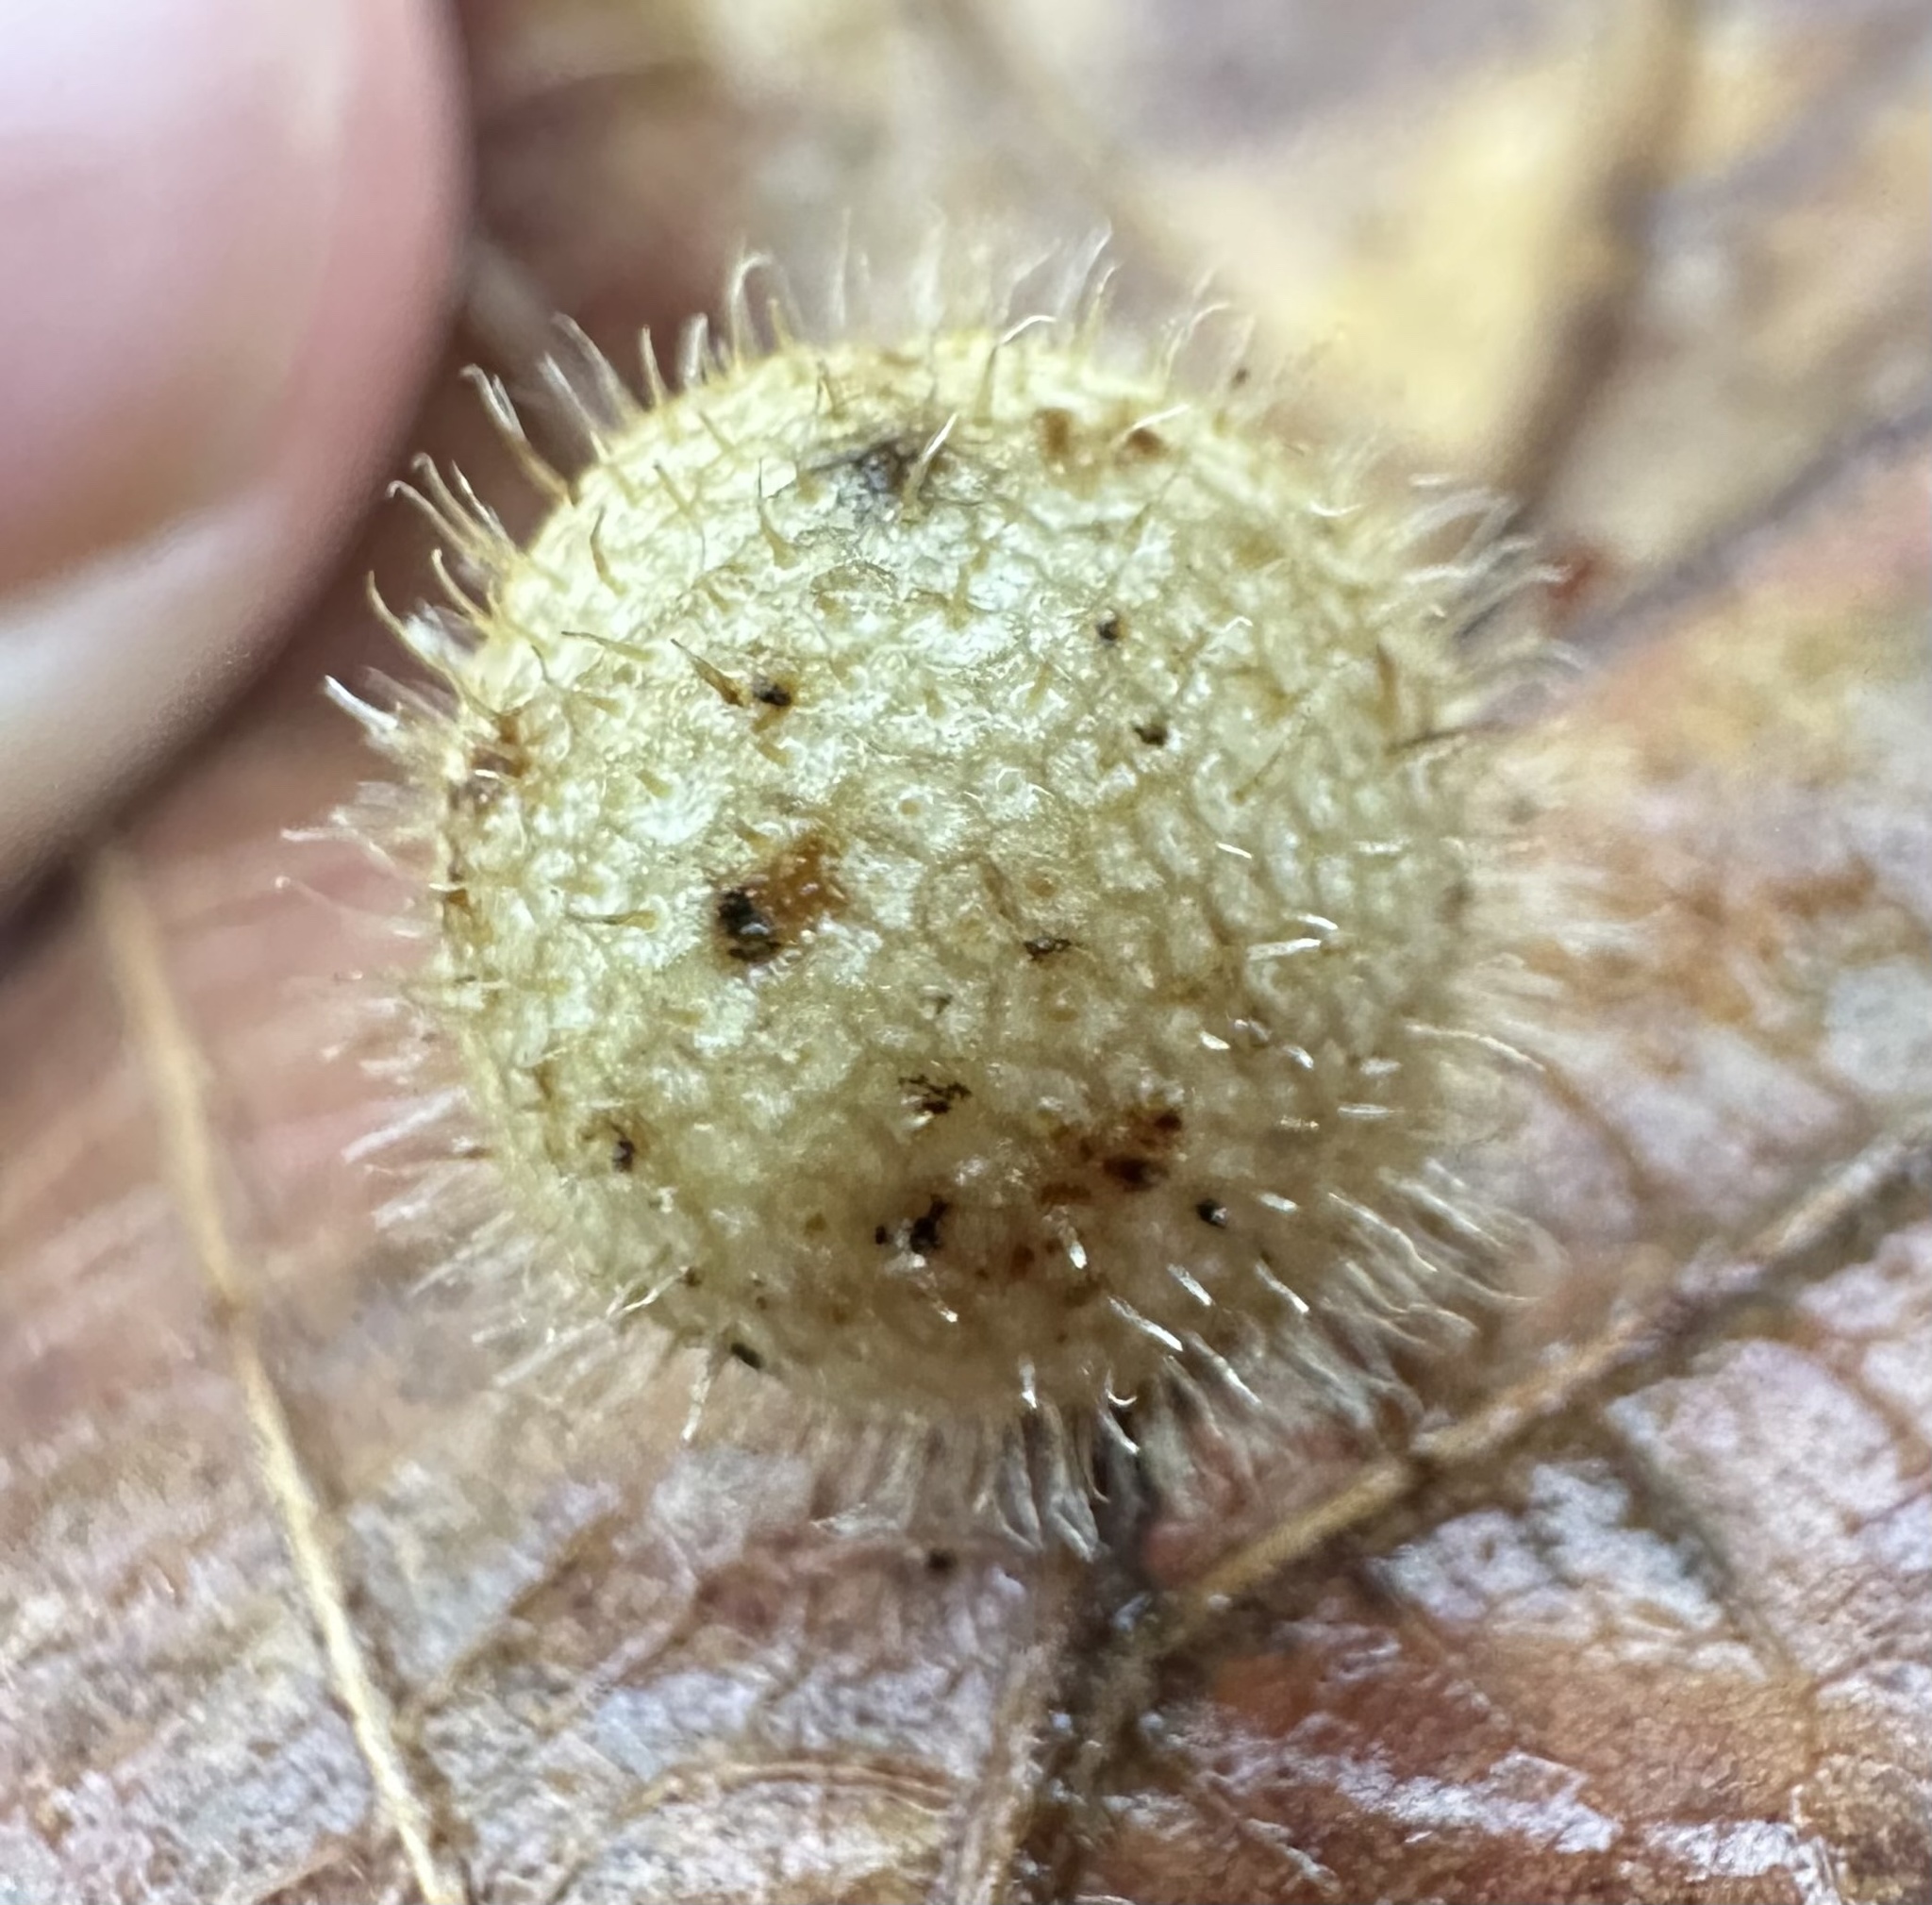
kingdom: Animalia
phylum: Arthropoda
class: Insecta
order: Hymenoptera
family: Cynipidae
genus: Acraspis
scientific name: Acraspis
